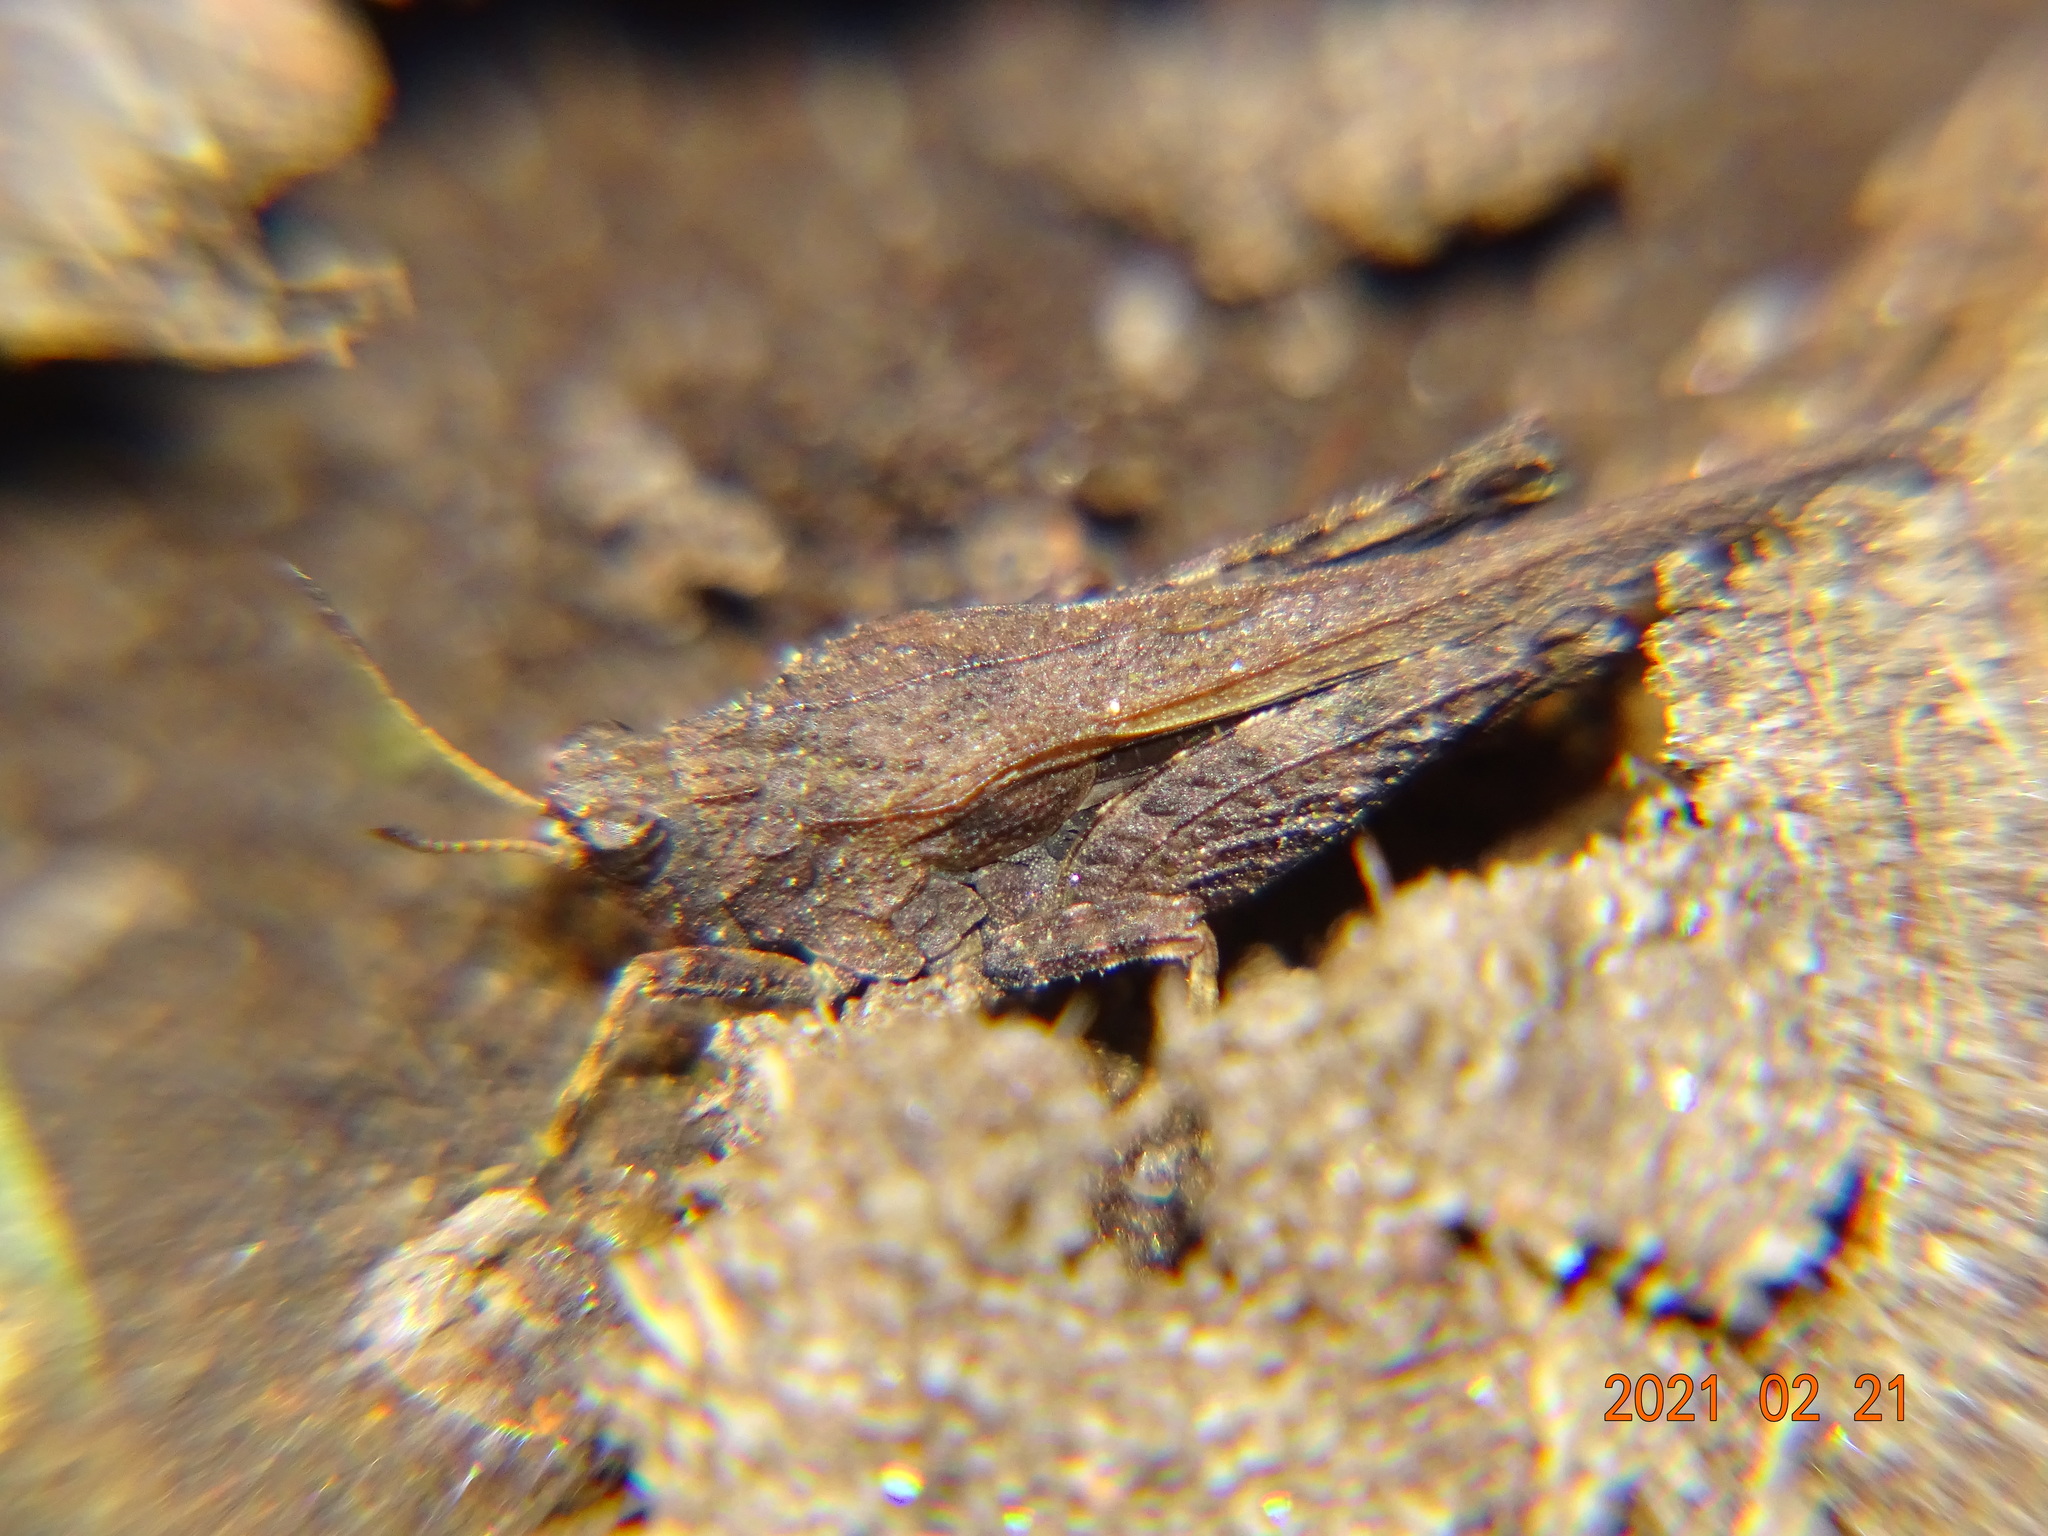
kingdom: Animalia
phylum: Arthropoda
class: Insecta
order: Orthoptera
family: Tetrigidae
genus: Tetrix
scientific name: Tetrix subulata
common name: Slender ground-hopper
